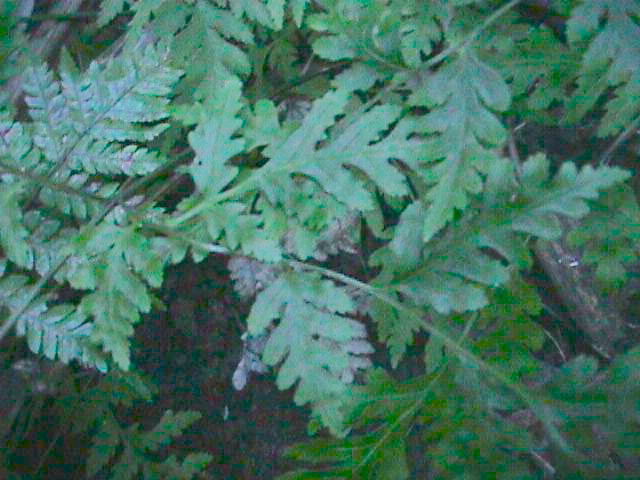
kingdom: Plantae
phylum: Tracheophyta
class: Polypodiopsida
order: Polypodiales
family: Pteridaceae
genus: Pteris
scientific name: Pteris macilenta
